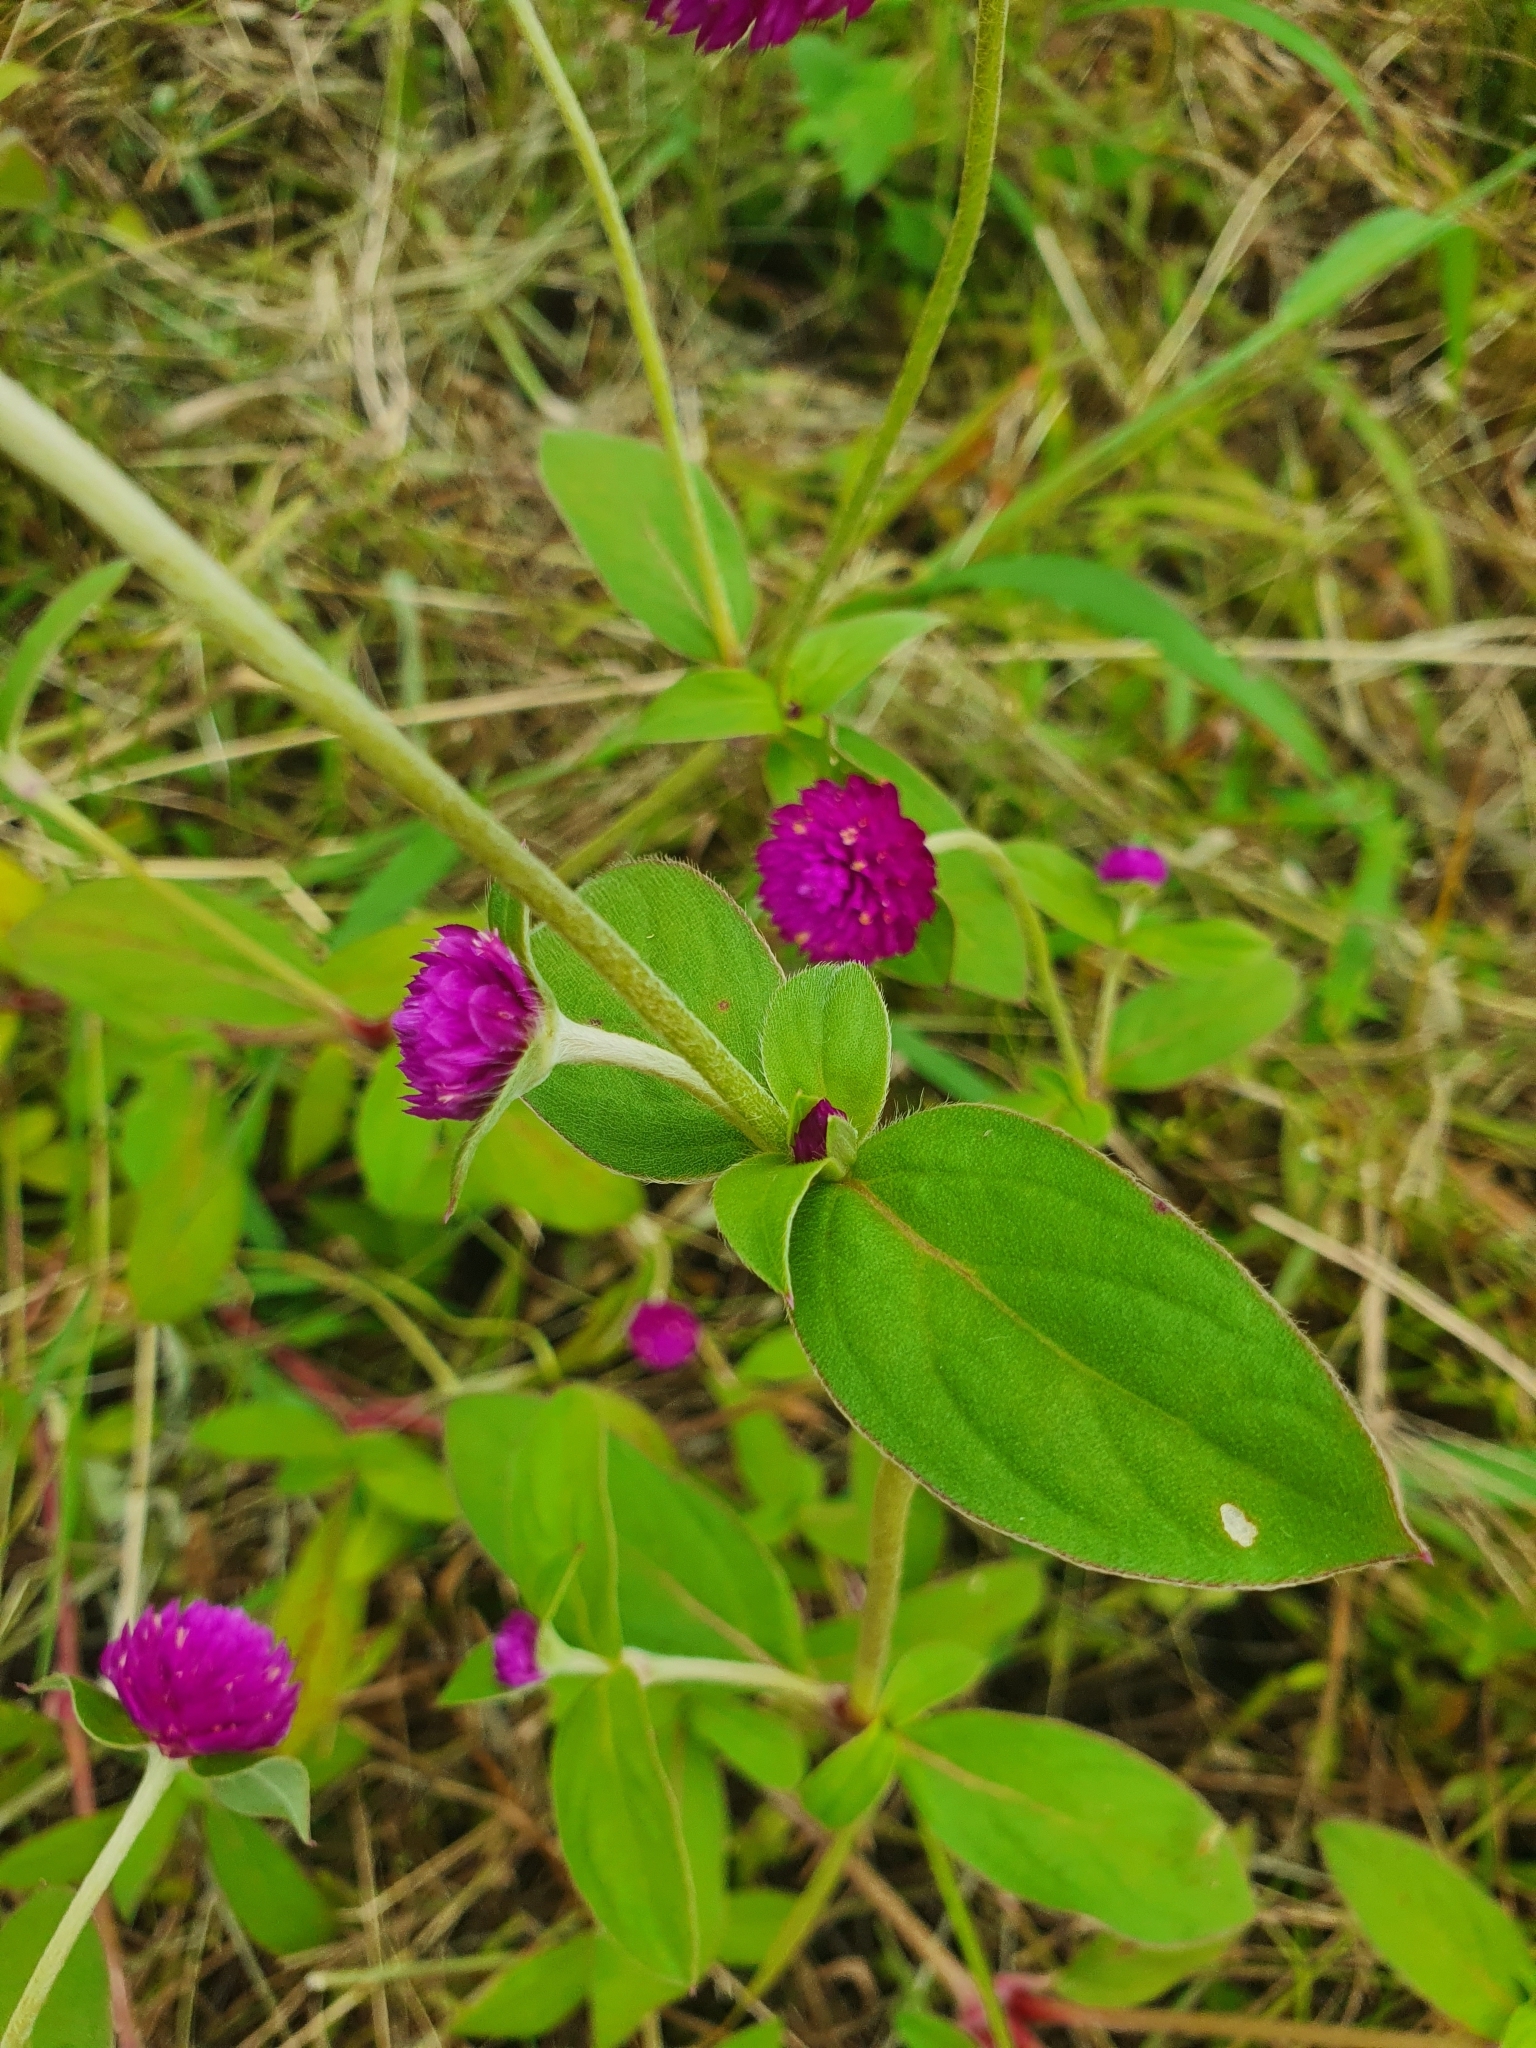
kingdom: Plantae
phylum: Tracheophyta
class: Magnoliopsida
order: Caryophyllales
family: Amaranthaceae
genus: Gomphrena
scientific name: Gomphrena globosa
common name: Common globe amaranth
